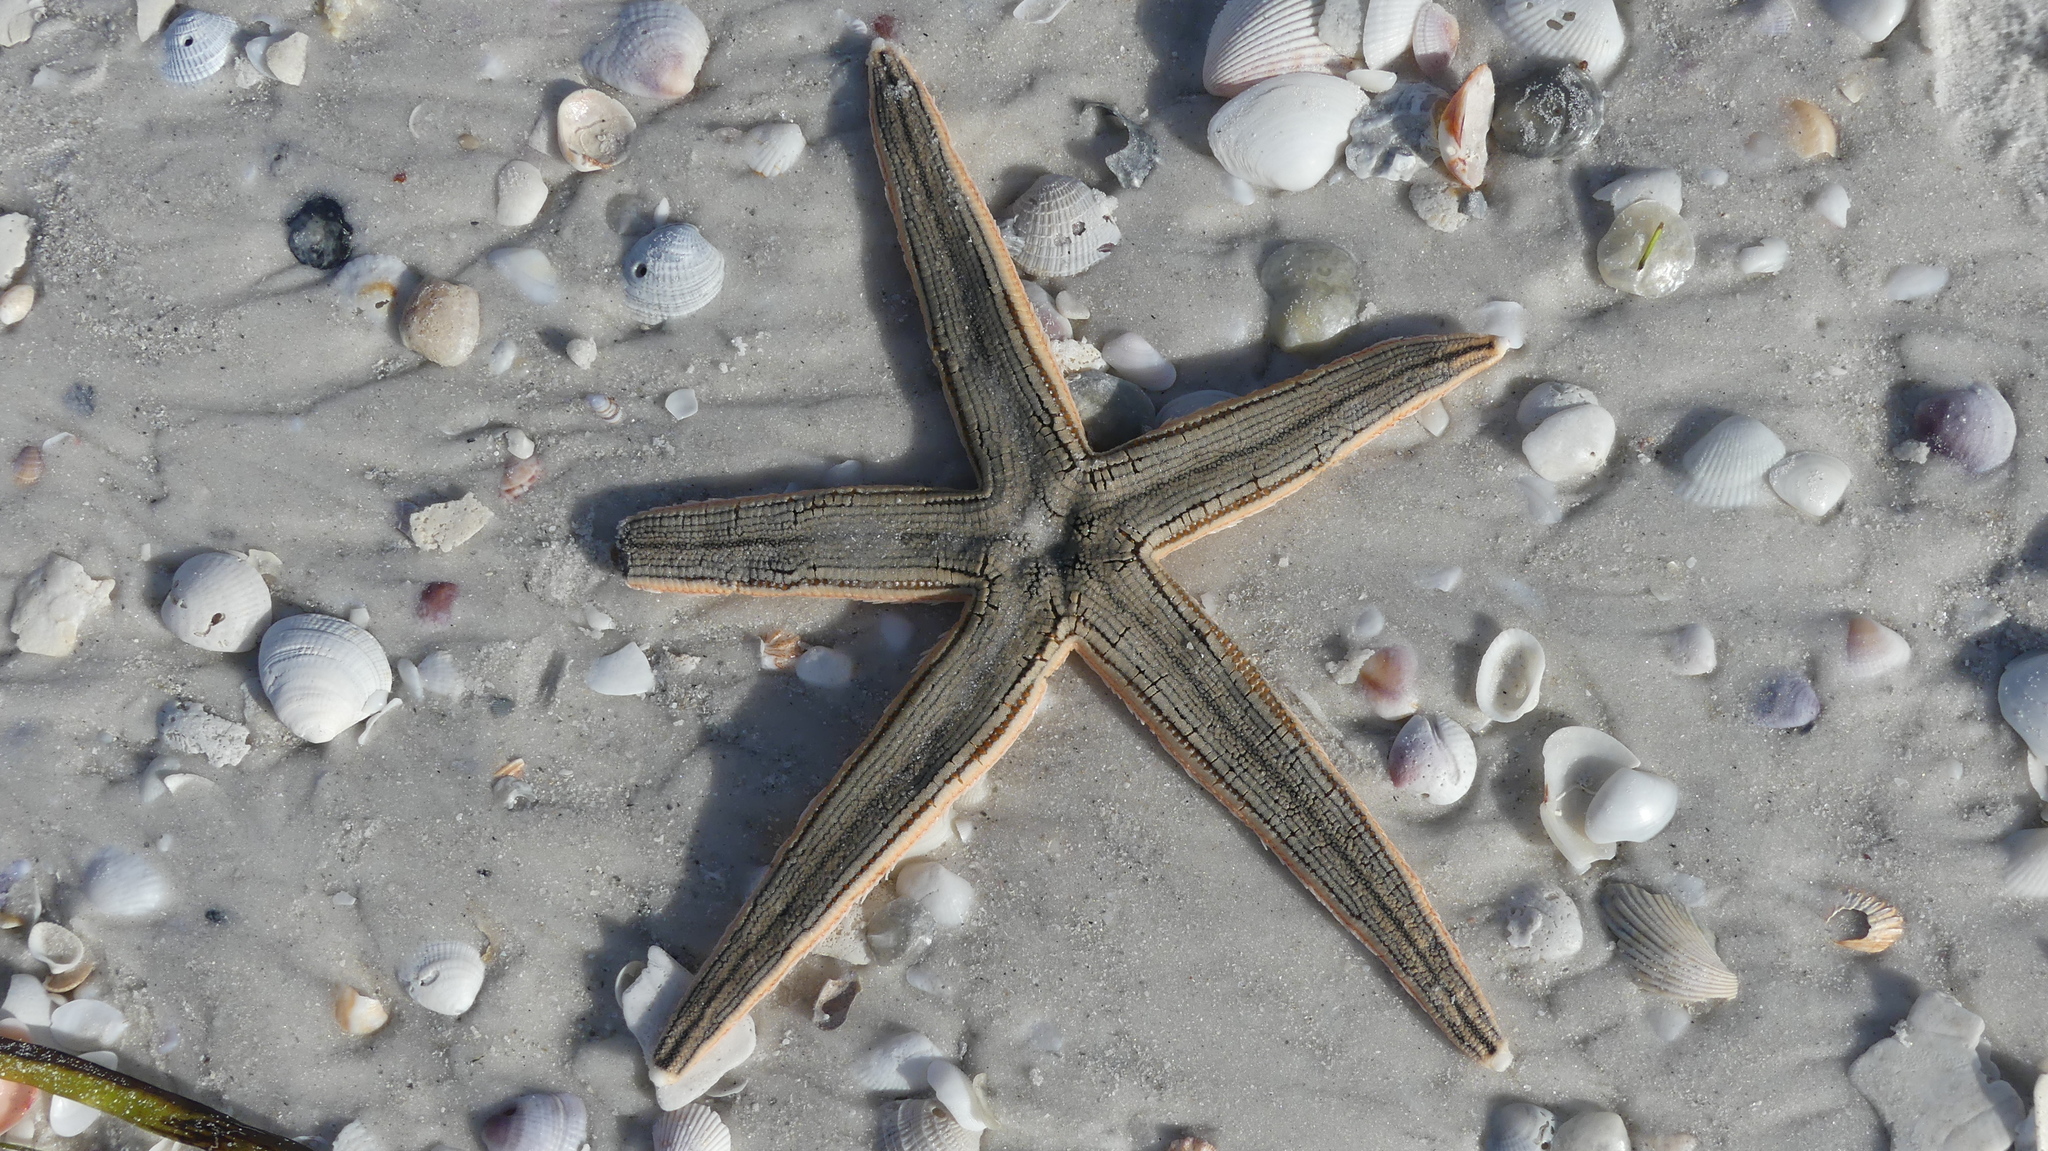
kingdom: Animalia
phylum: Echinodermata
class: Asteroidea
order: Paxillosida
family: Luidiidae
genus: Luidia
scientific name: Luidia clathrata
